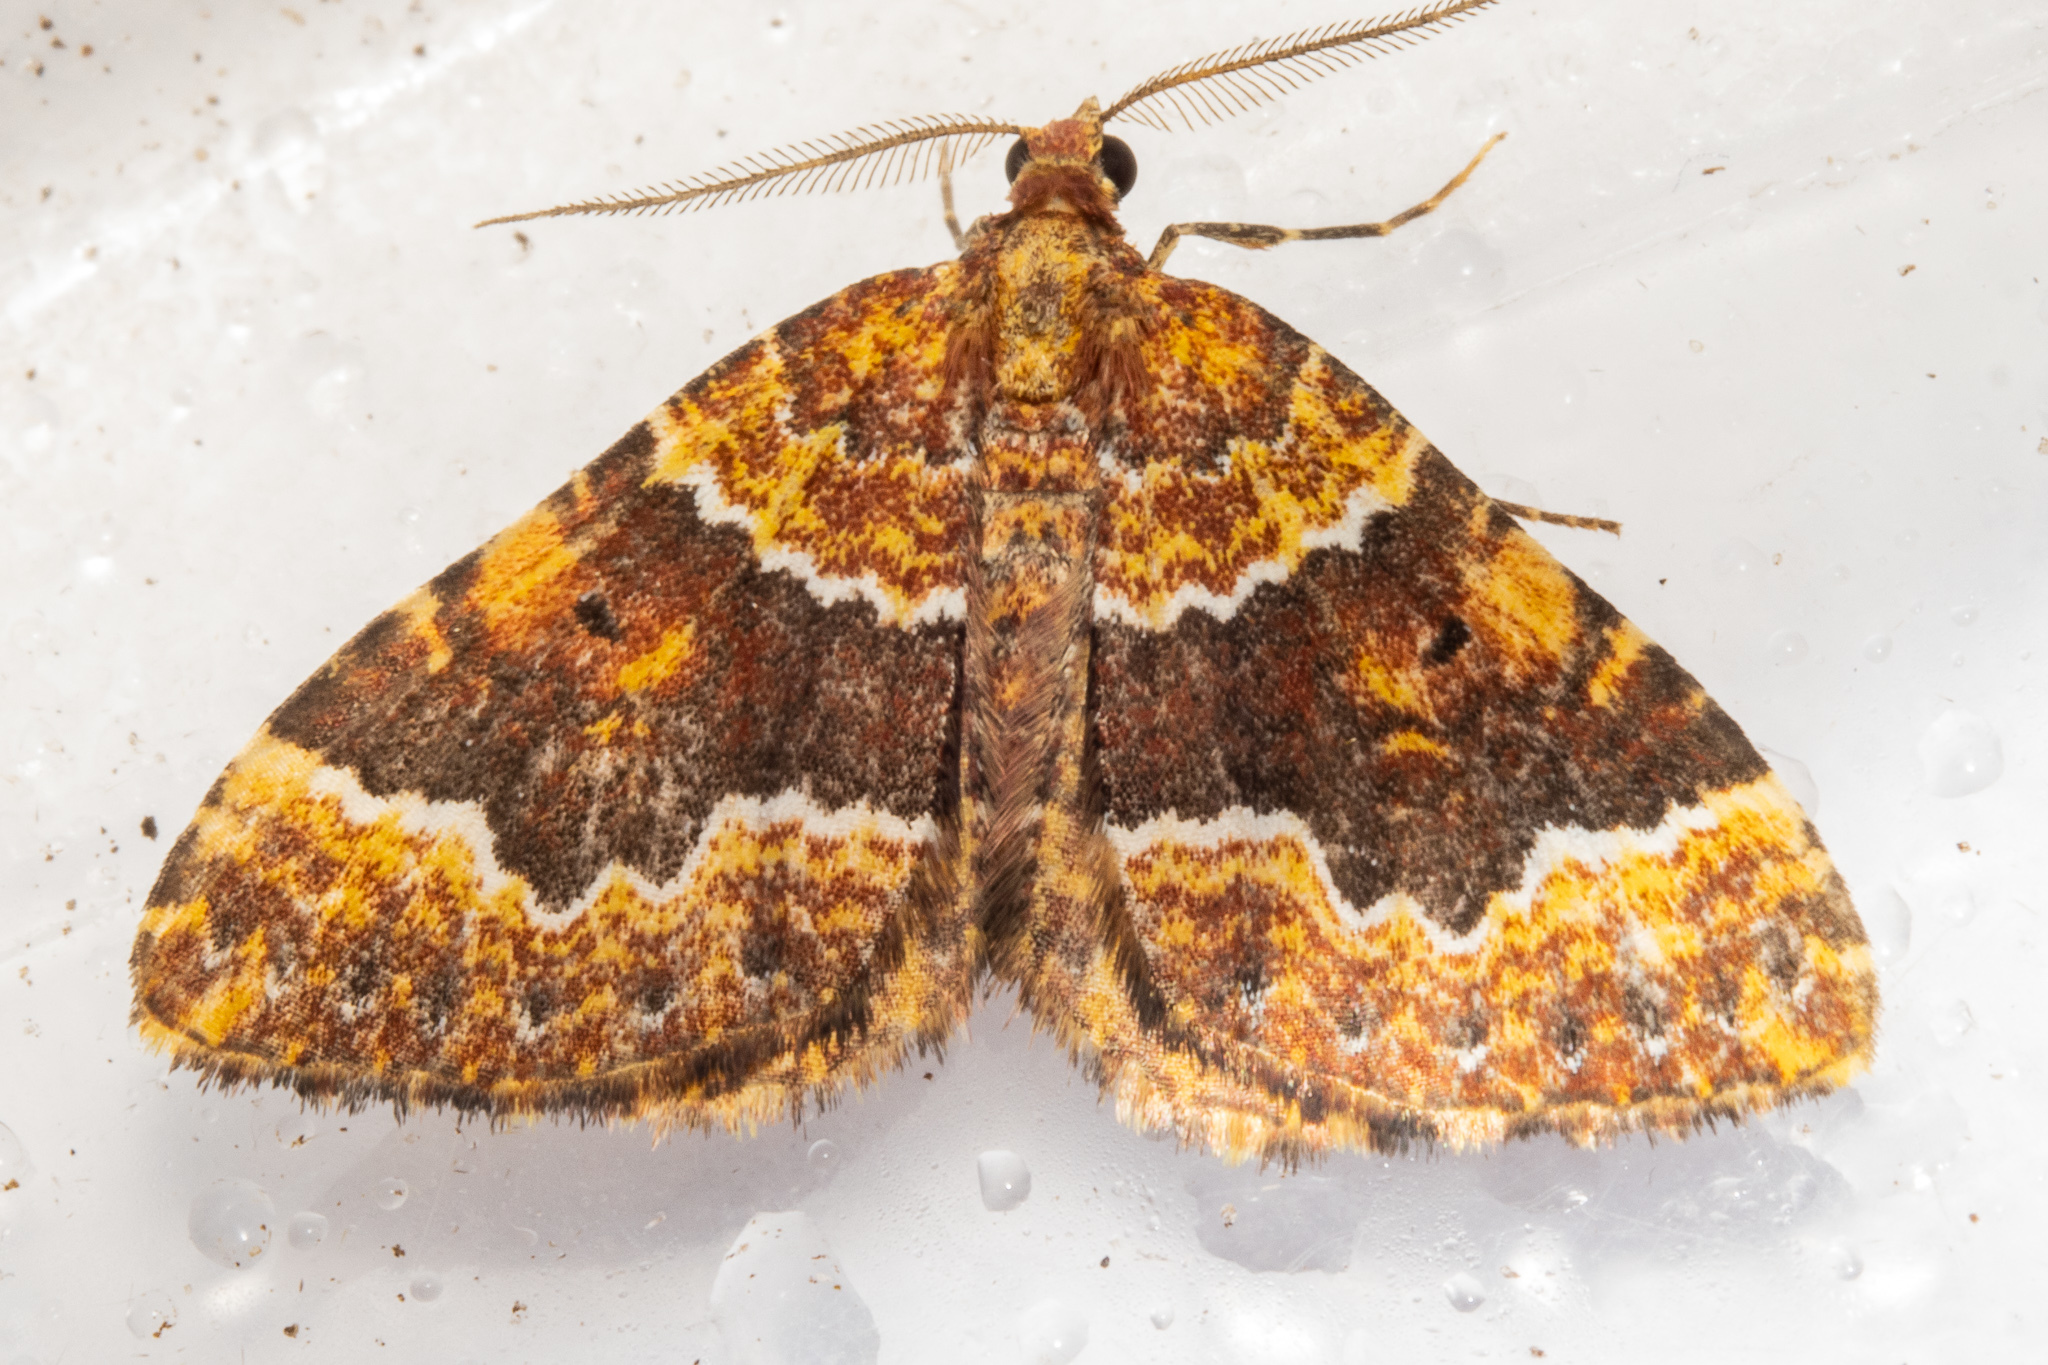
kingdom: Animalia
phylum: Arthropoda
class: Insecta
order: Lepidoptera
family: Geometridae
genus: Asaphodes
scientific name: Asaphodes prasinias
